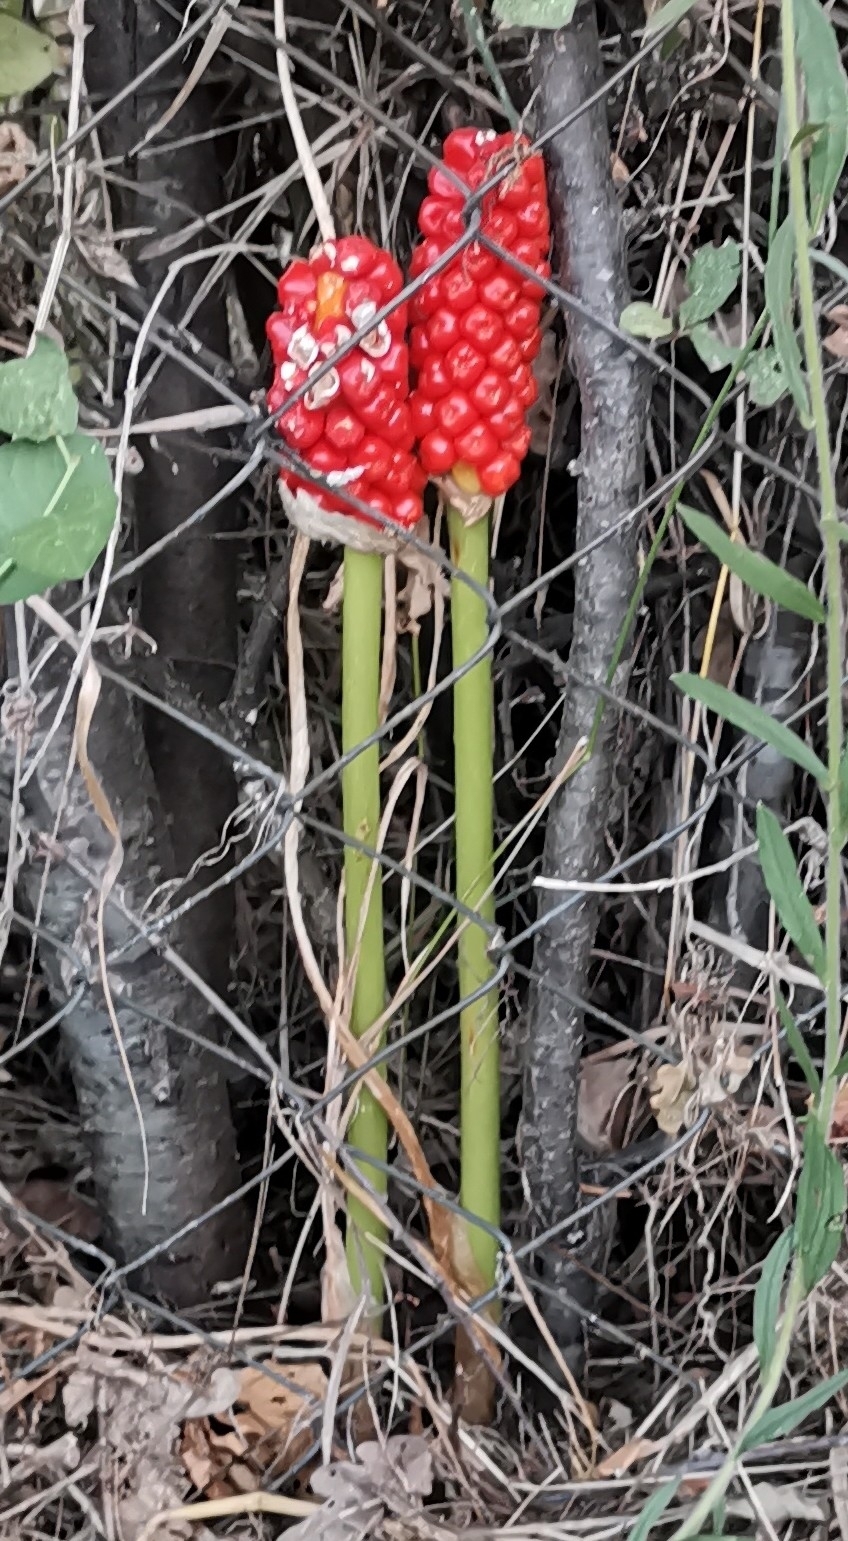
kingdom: Plantae
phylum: Tracheophyta
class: Liliopsida
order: Alismatales
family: Araceae
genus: Arum
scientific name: Arum italicum
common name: Italian lords-and-ladies
